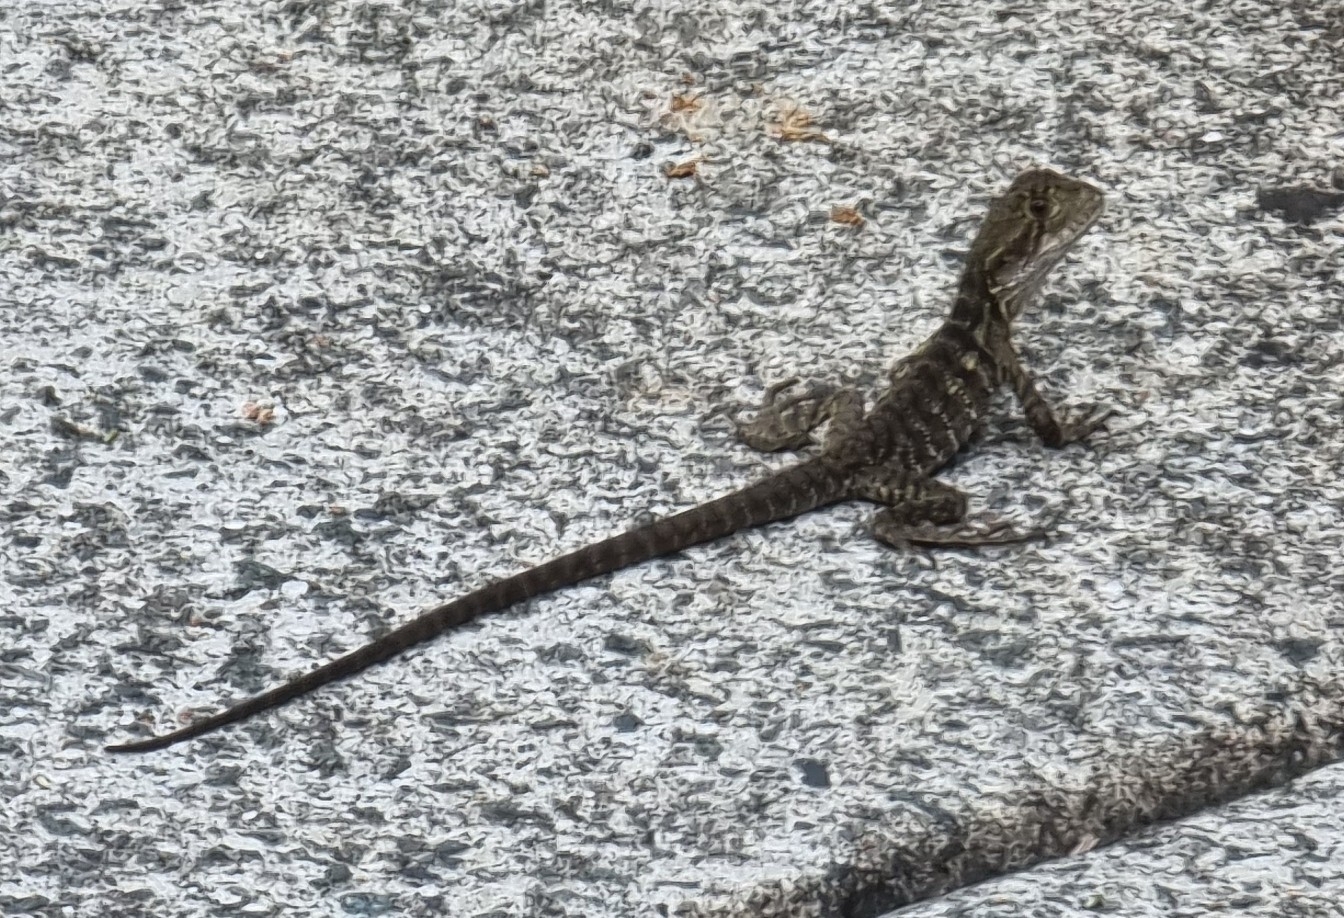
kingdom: Animalia
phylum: Chordata
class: Squamata
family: Agamidae
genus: Intellagama
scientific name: Intellagama lesueurii
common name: Eastern water dragon
